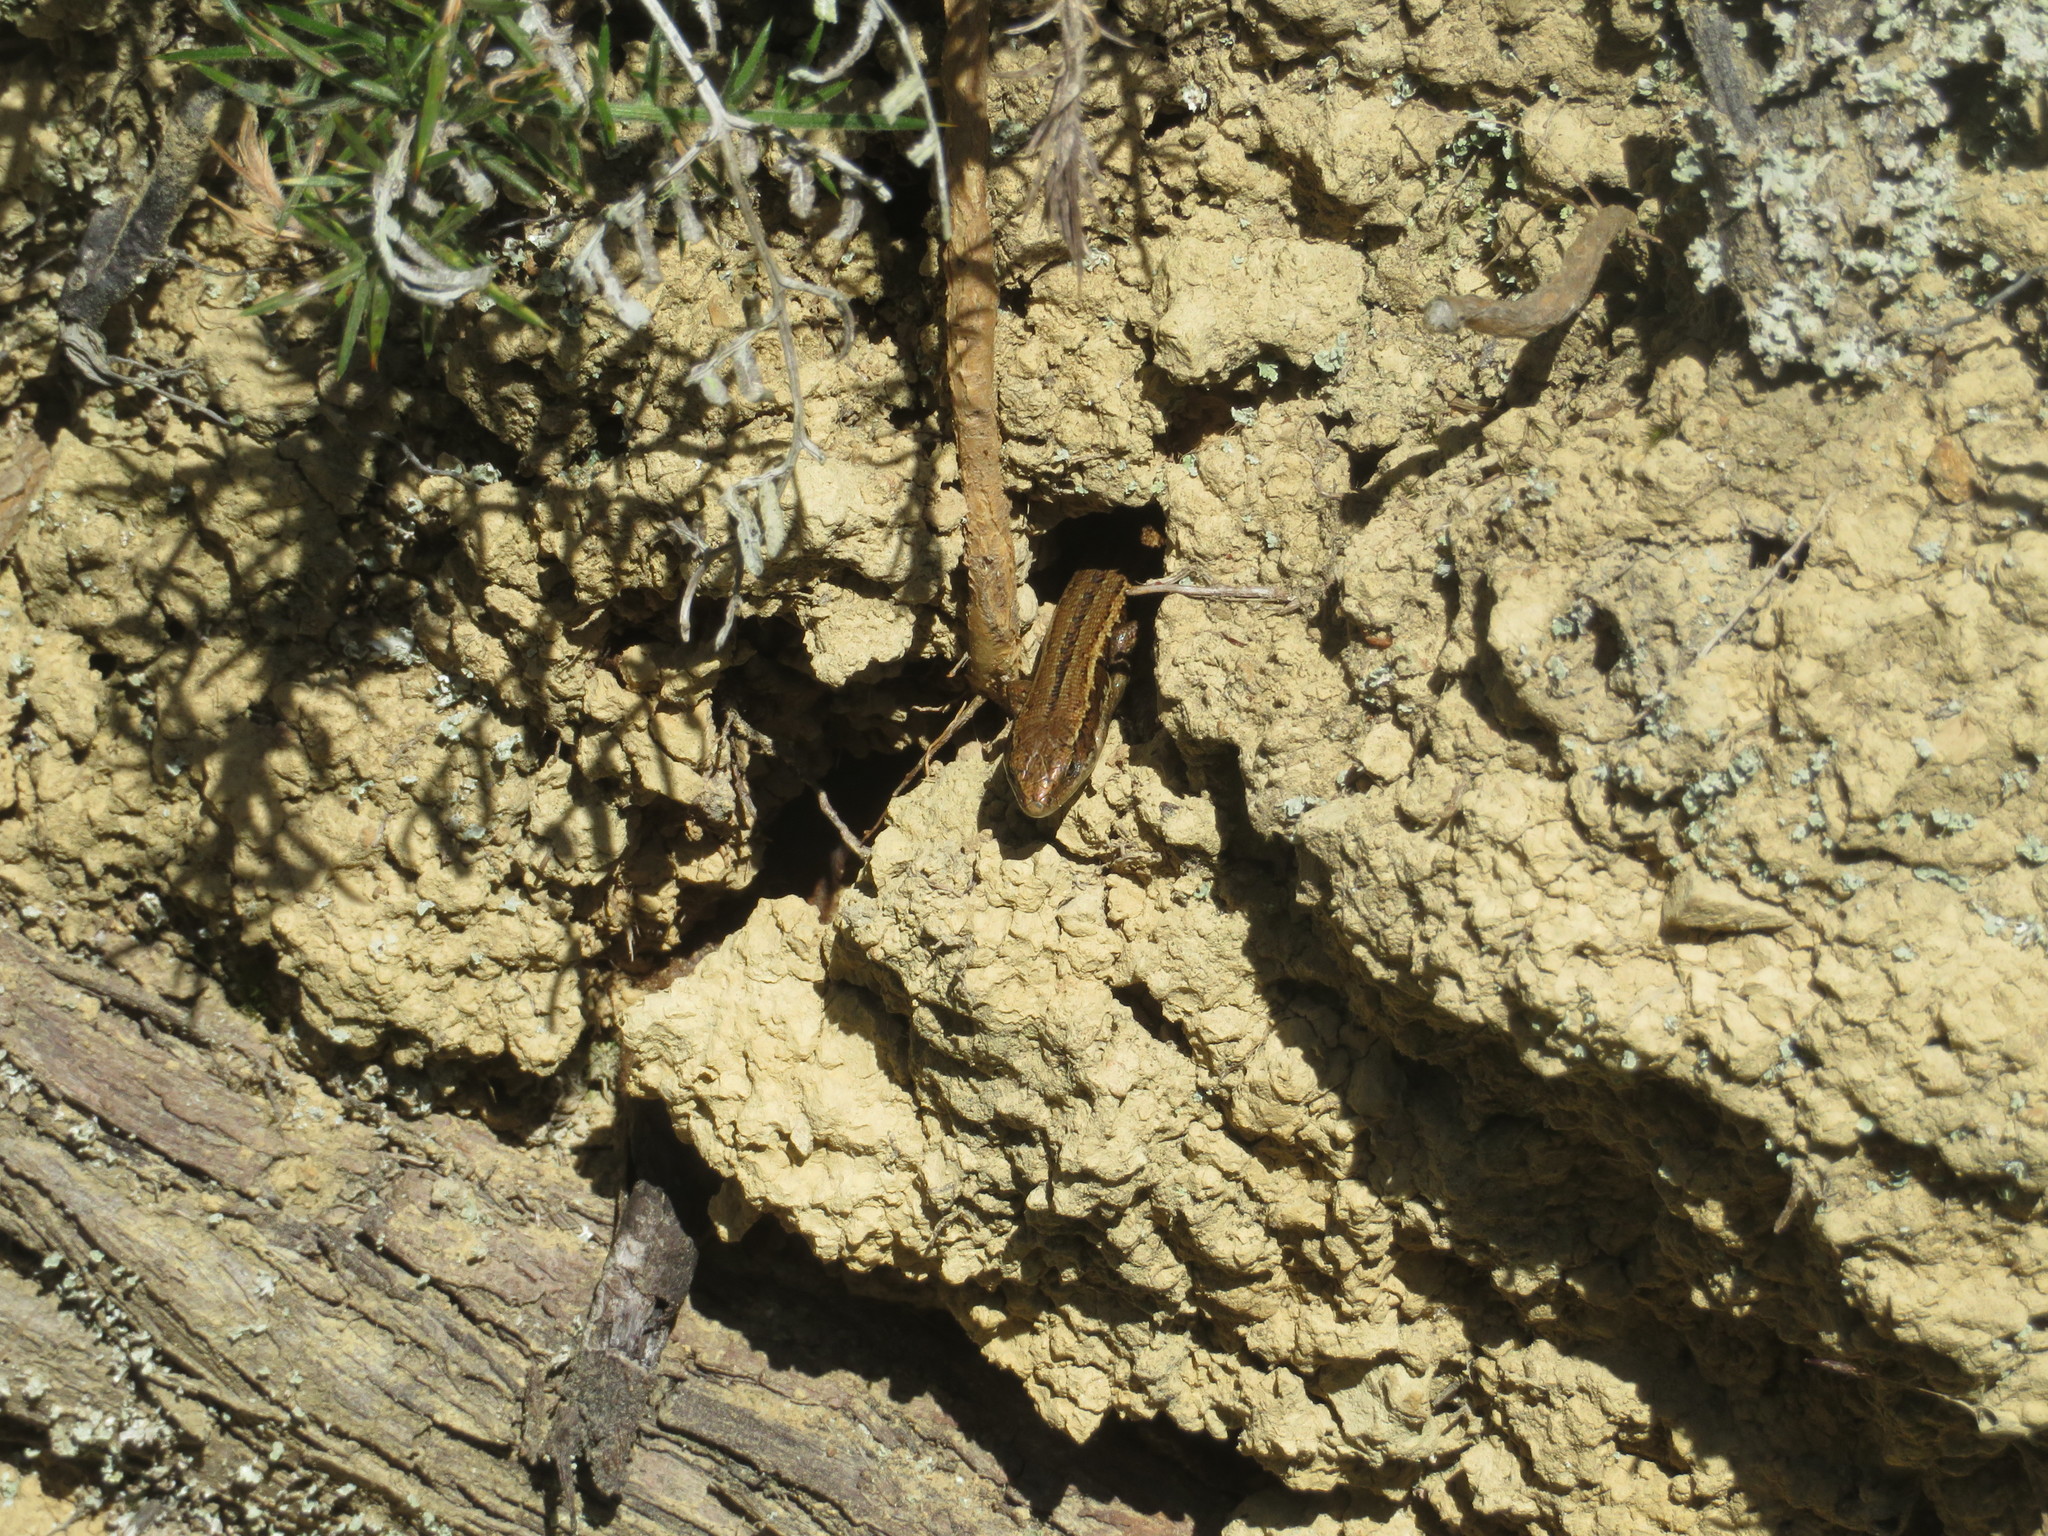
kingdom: Animalia
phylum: Chordata
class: Squamata
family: Scincidae
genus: Oligosoma
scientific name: Oligosoma polychroma
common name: Common new zealand skink
